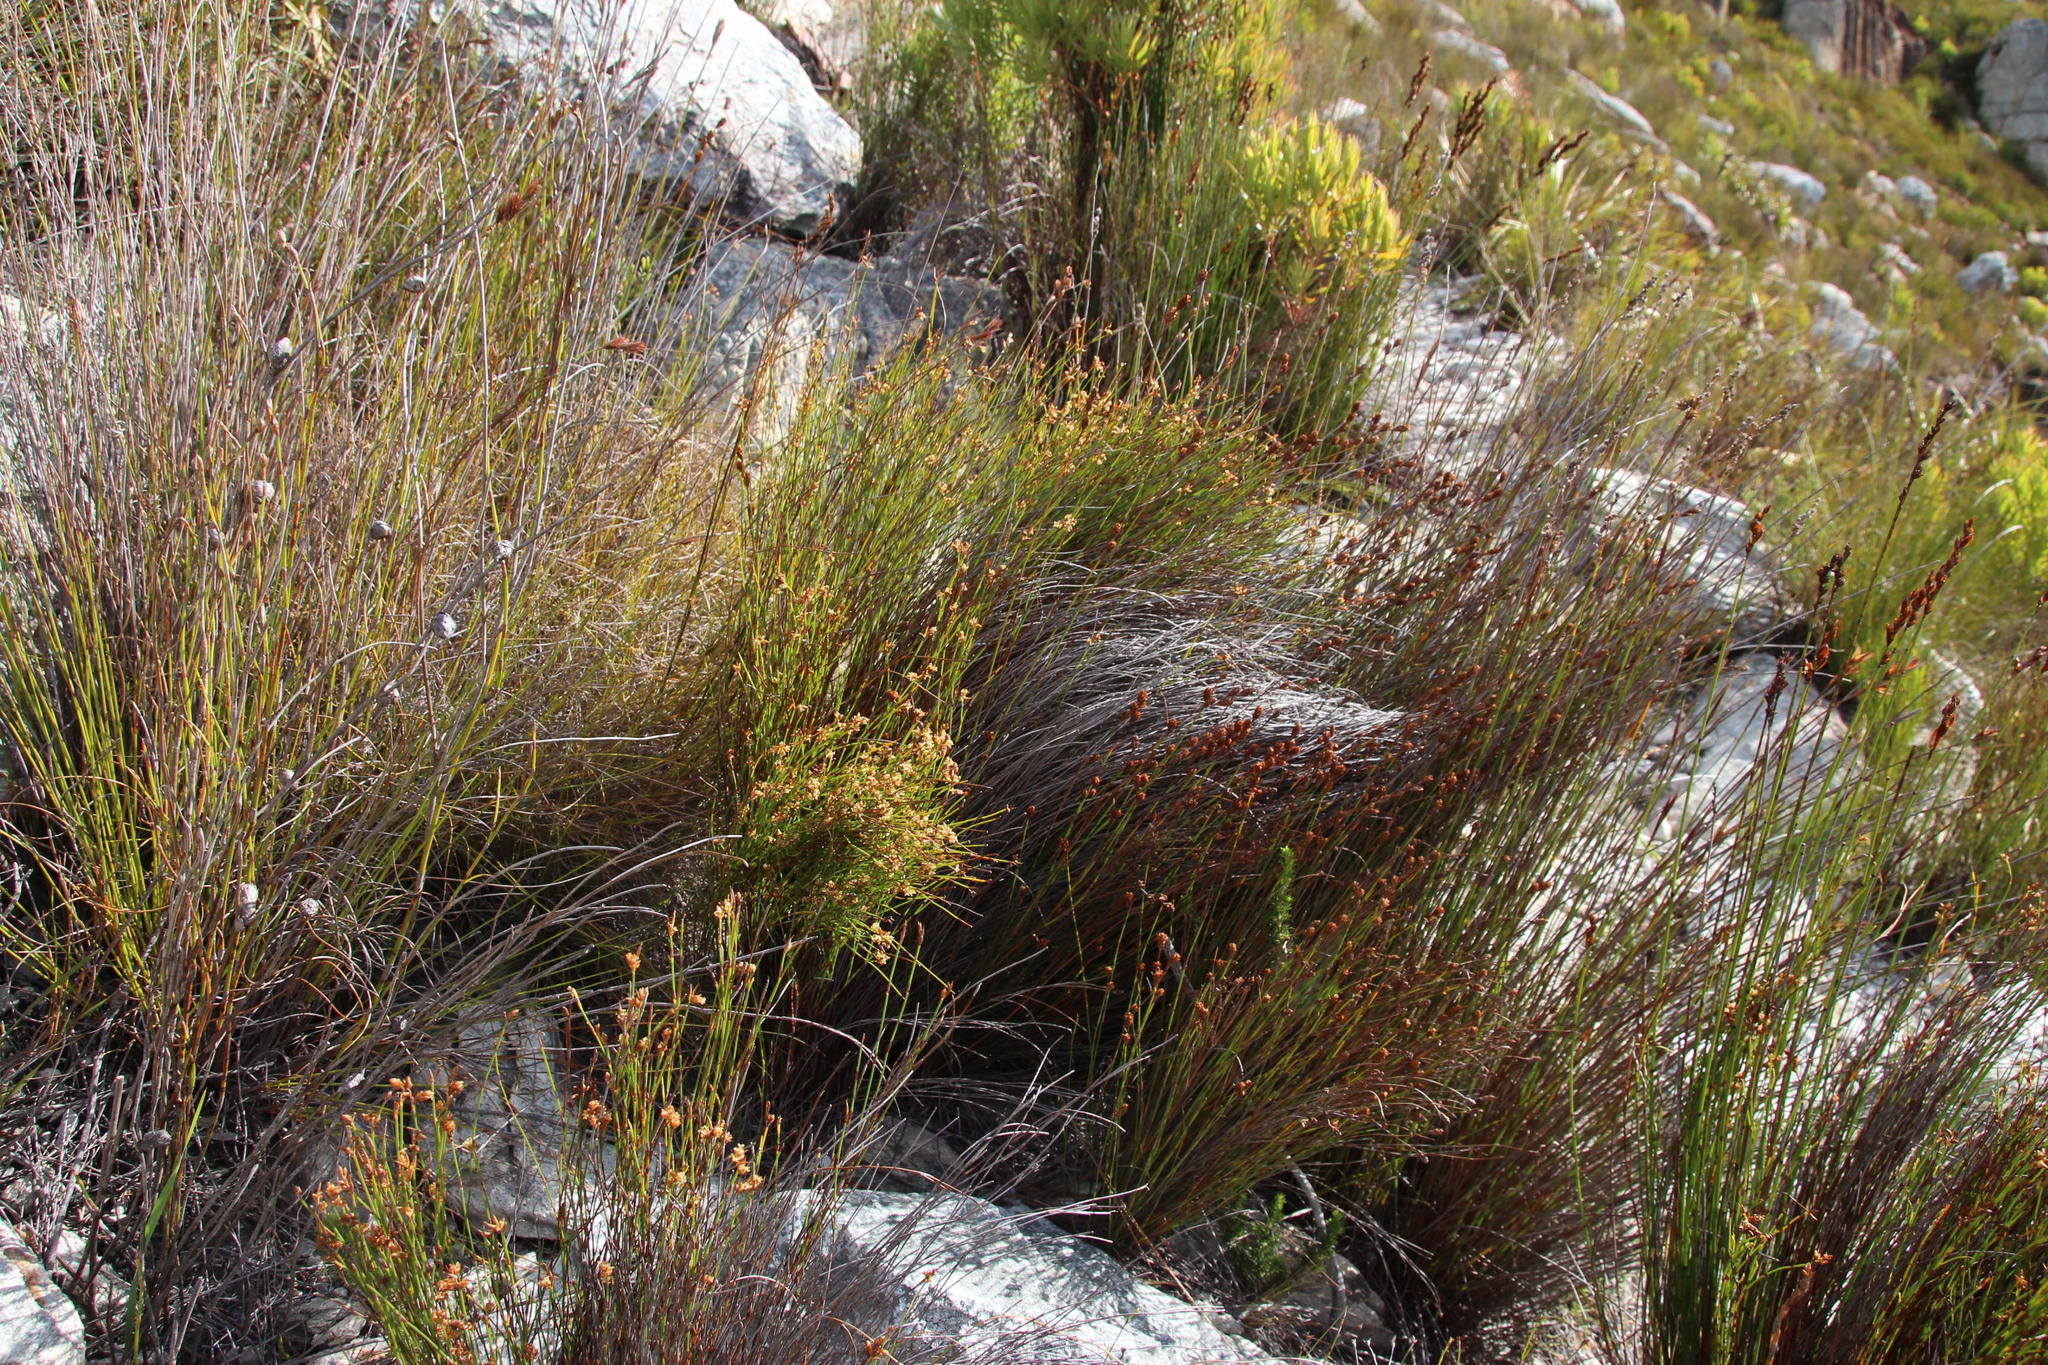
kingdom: Plantae
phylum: Tracheophyta
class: Liliopsida
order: Poales
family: Restionaceae
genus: Mastersiella
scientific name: Mastersiella digitata
